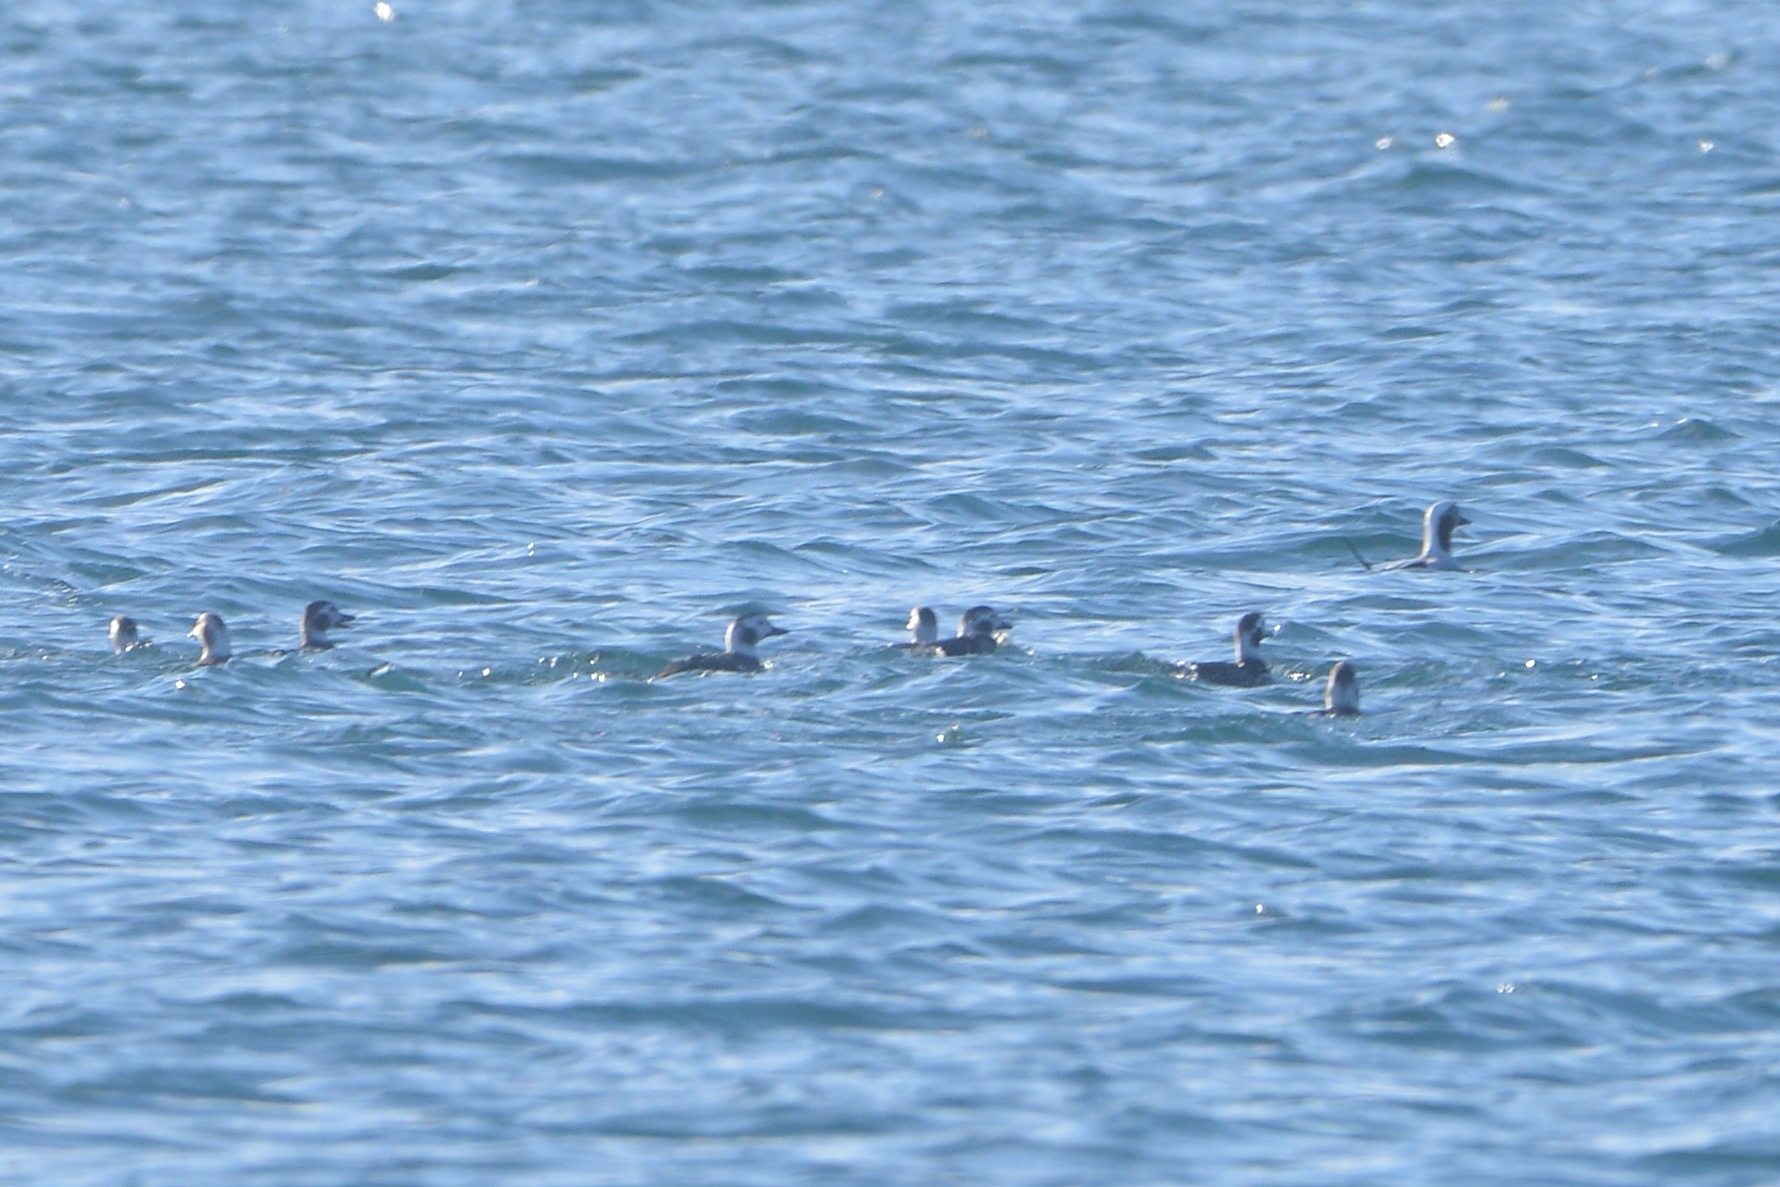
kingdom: Animalia
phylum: Chordata
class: Aves
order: Anseriformes
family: Anatidae
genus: Clangula
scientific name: Clangula hyemalis
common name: Long-tailed duck
